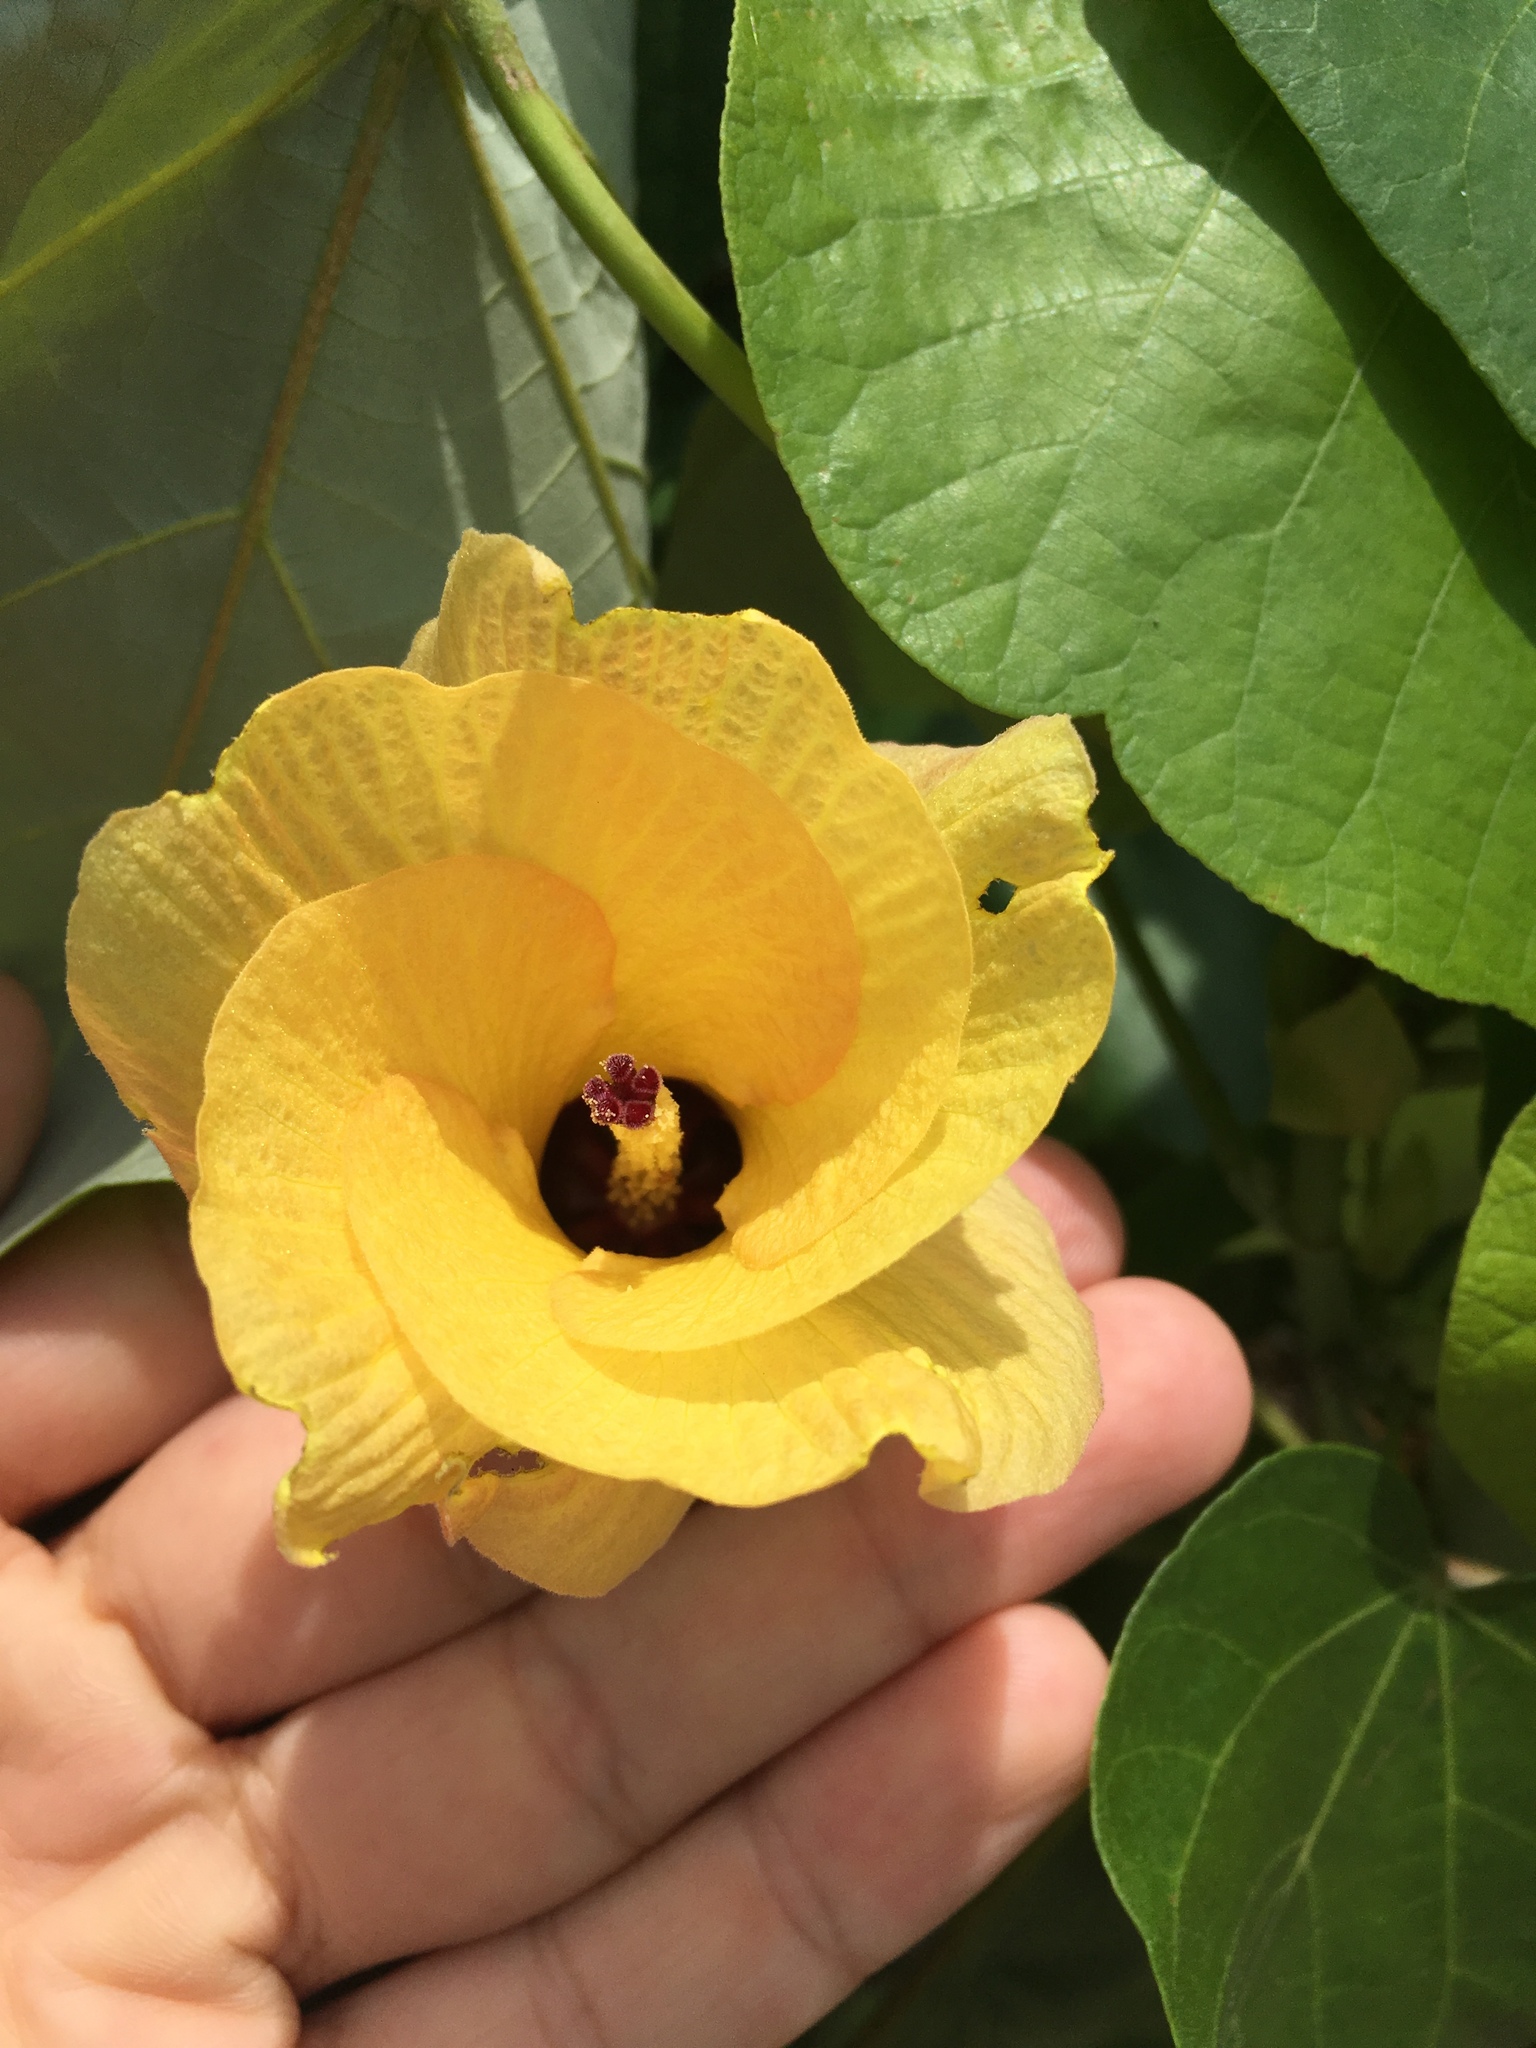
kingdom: Plantae
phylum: Tracheophyta
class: Magnoliopsida
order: Malvales
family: Malvaceae
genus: Talipariti
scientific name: Talipariti tiliaceum
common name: Sea hibiscus
